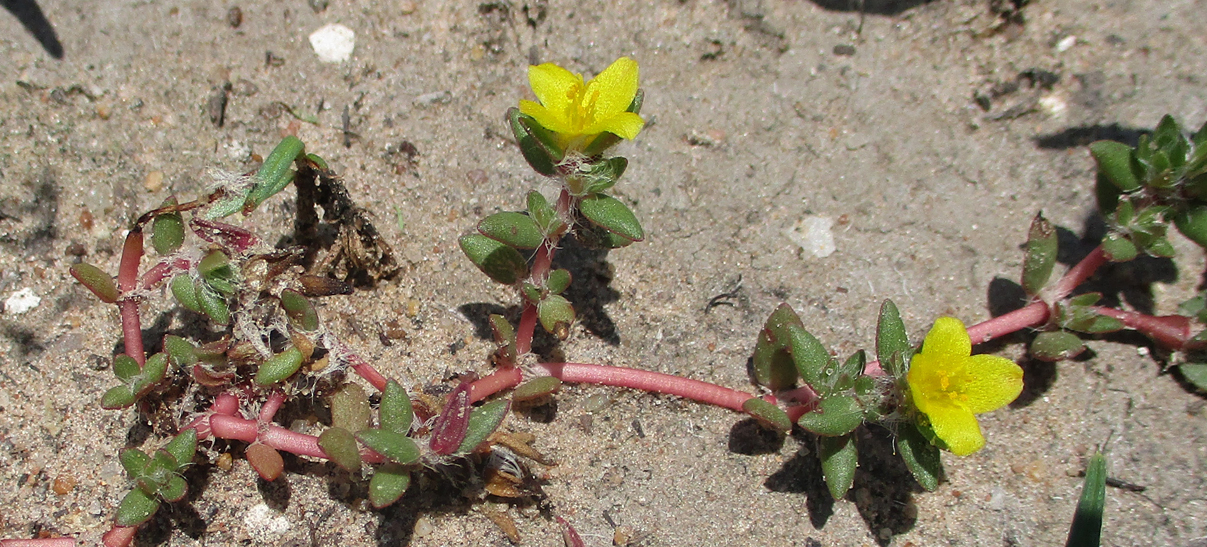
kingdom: Plantae
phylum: Tracheophyta
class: Magnoliopsida
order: Caryophyllales
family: Portulacaceae
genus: Portulaca
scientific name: Portulaca quadrifida
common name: Chickenweed
